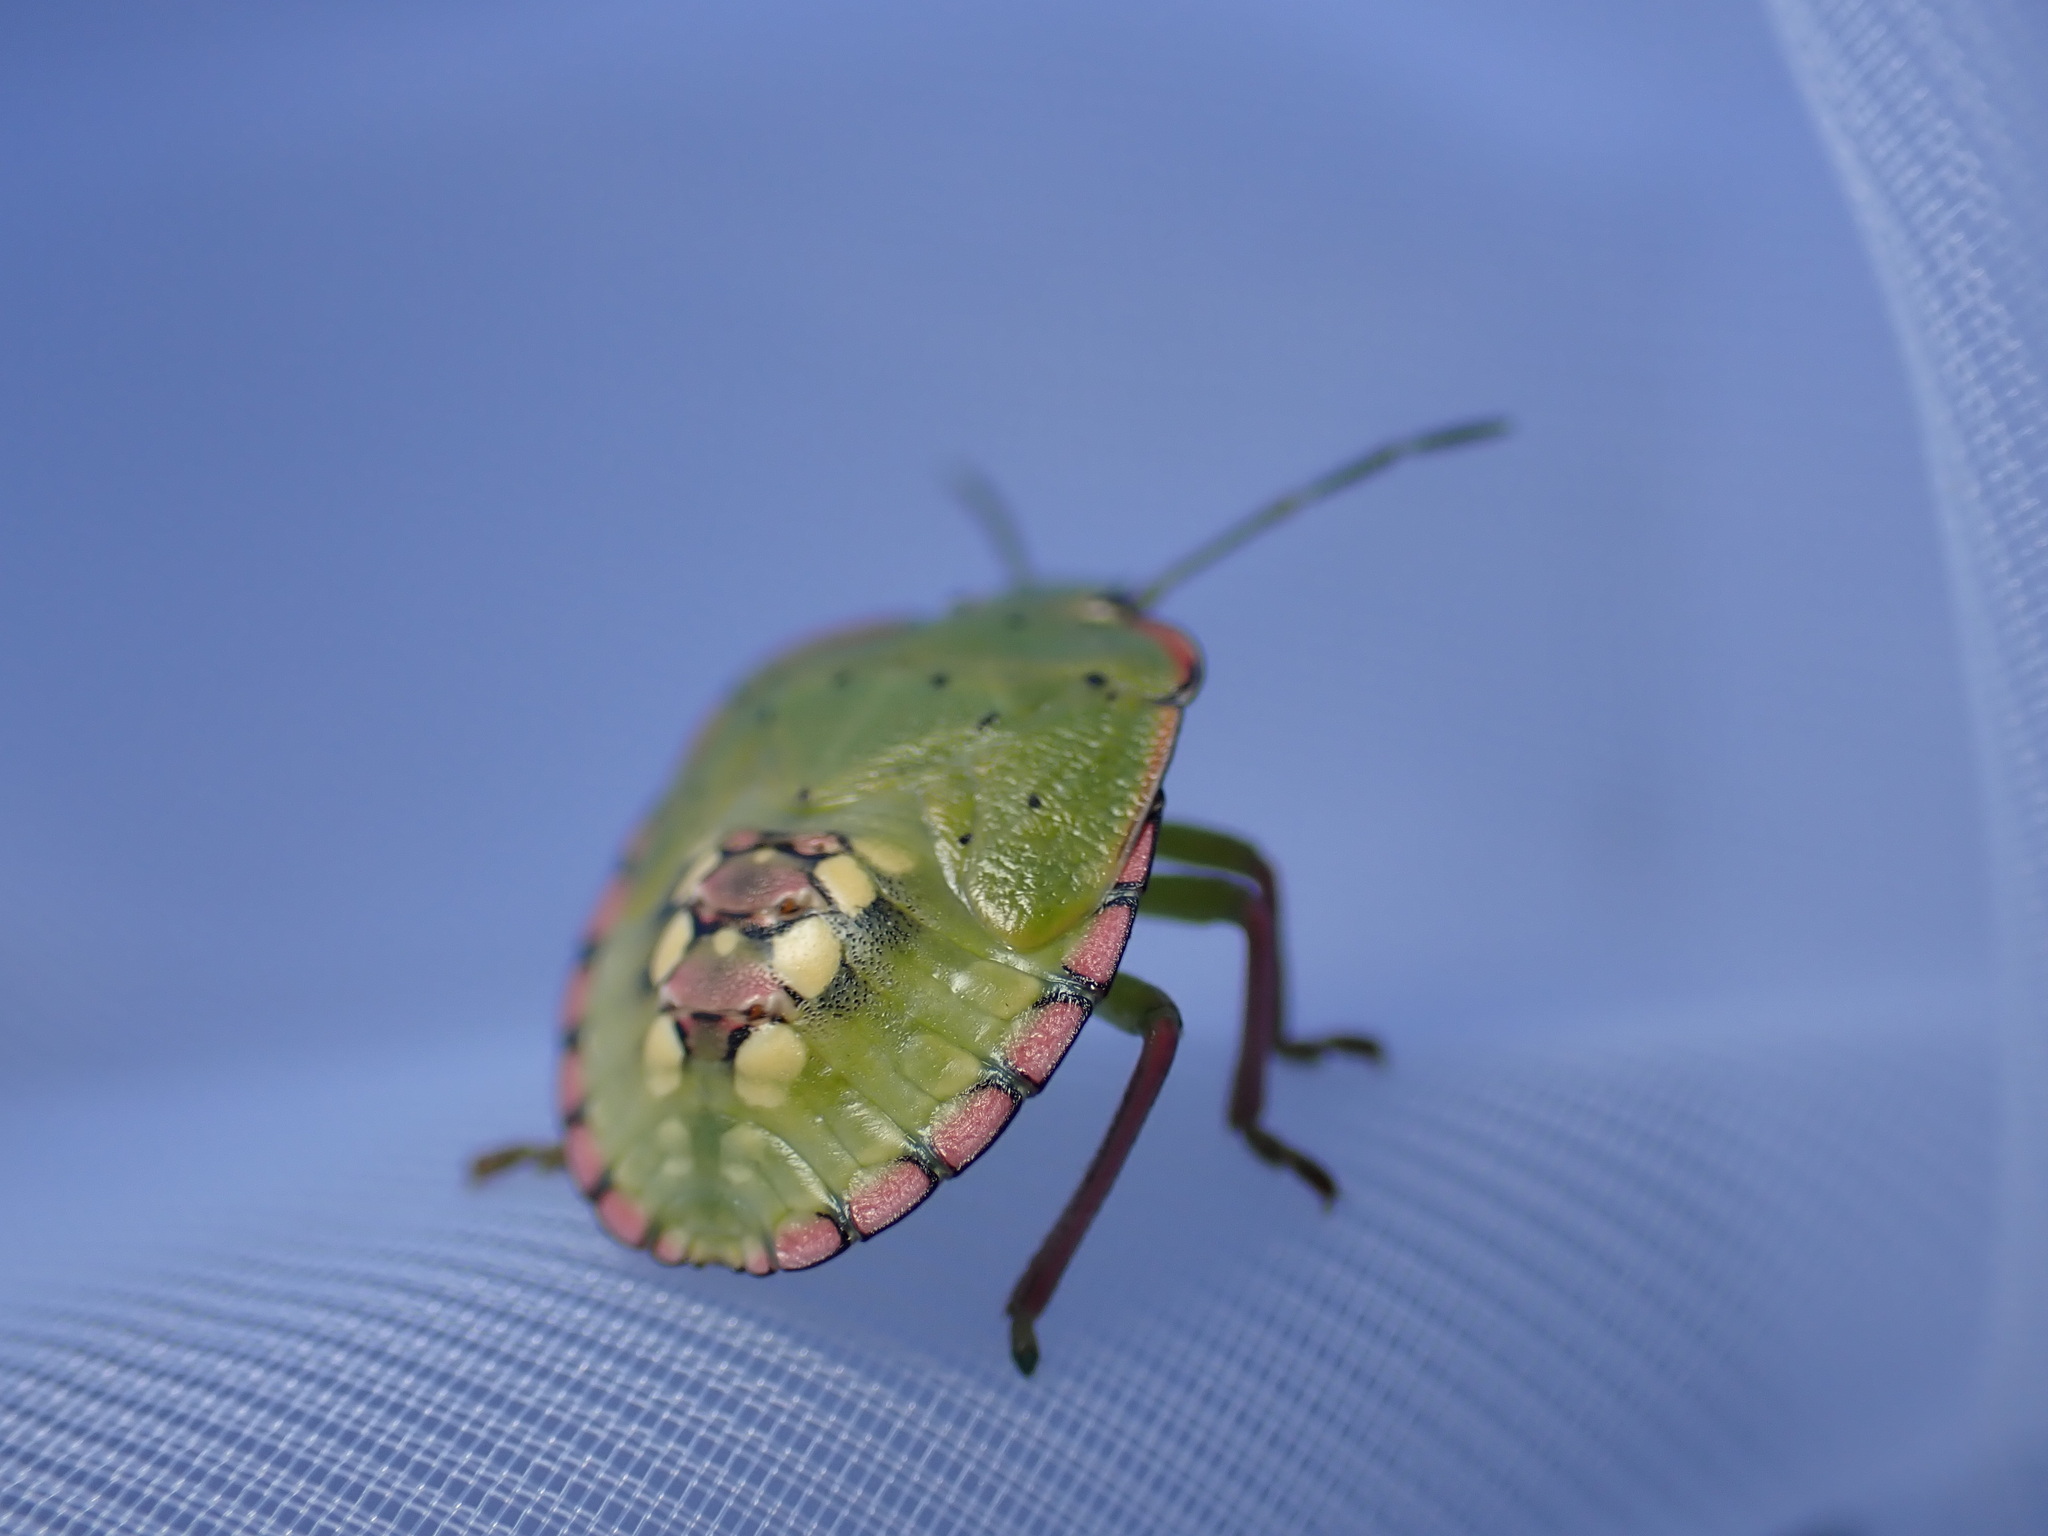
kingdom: Animalia
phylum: Arthropoda
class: Insecta
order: Hemiptera
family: Pentatomidae
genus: Nezara
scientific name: Nezara viridula
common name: Southern green stink bug
